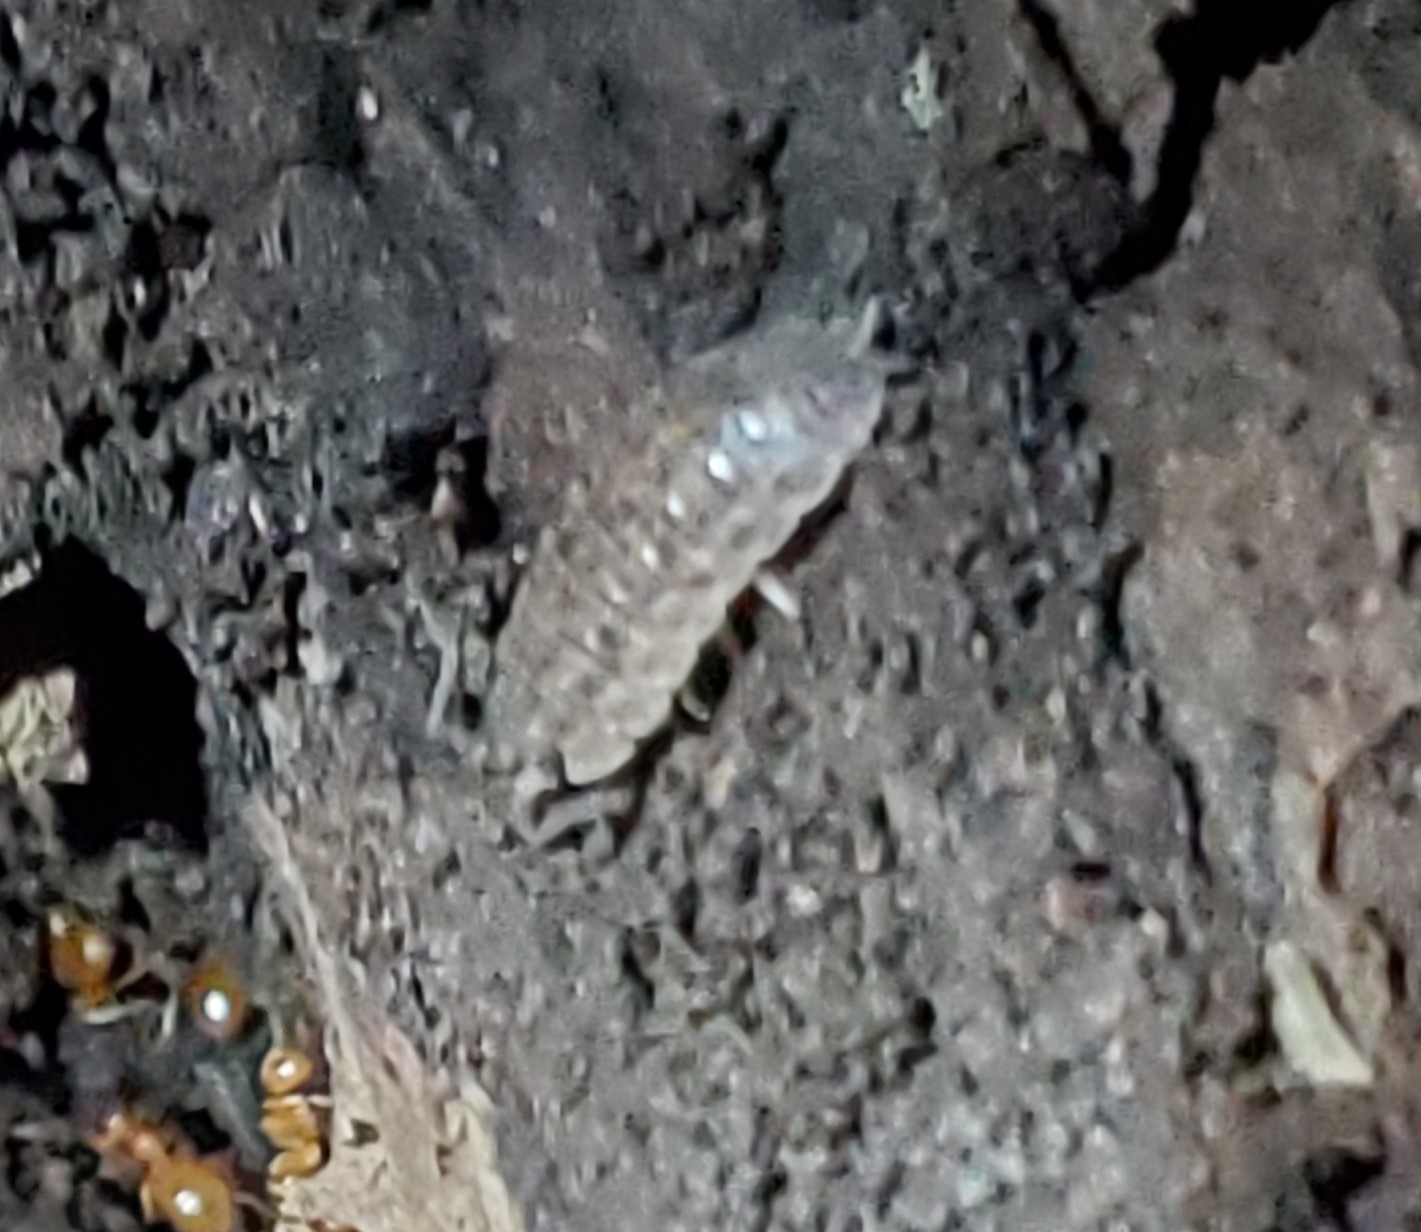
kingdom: Animalia
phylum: Arthropoda
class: Malacostraca
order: Isopoda
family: Trachelipodidae
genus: Trachelipus
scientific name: Trachelipus rathkii
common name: Isopod
